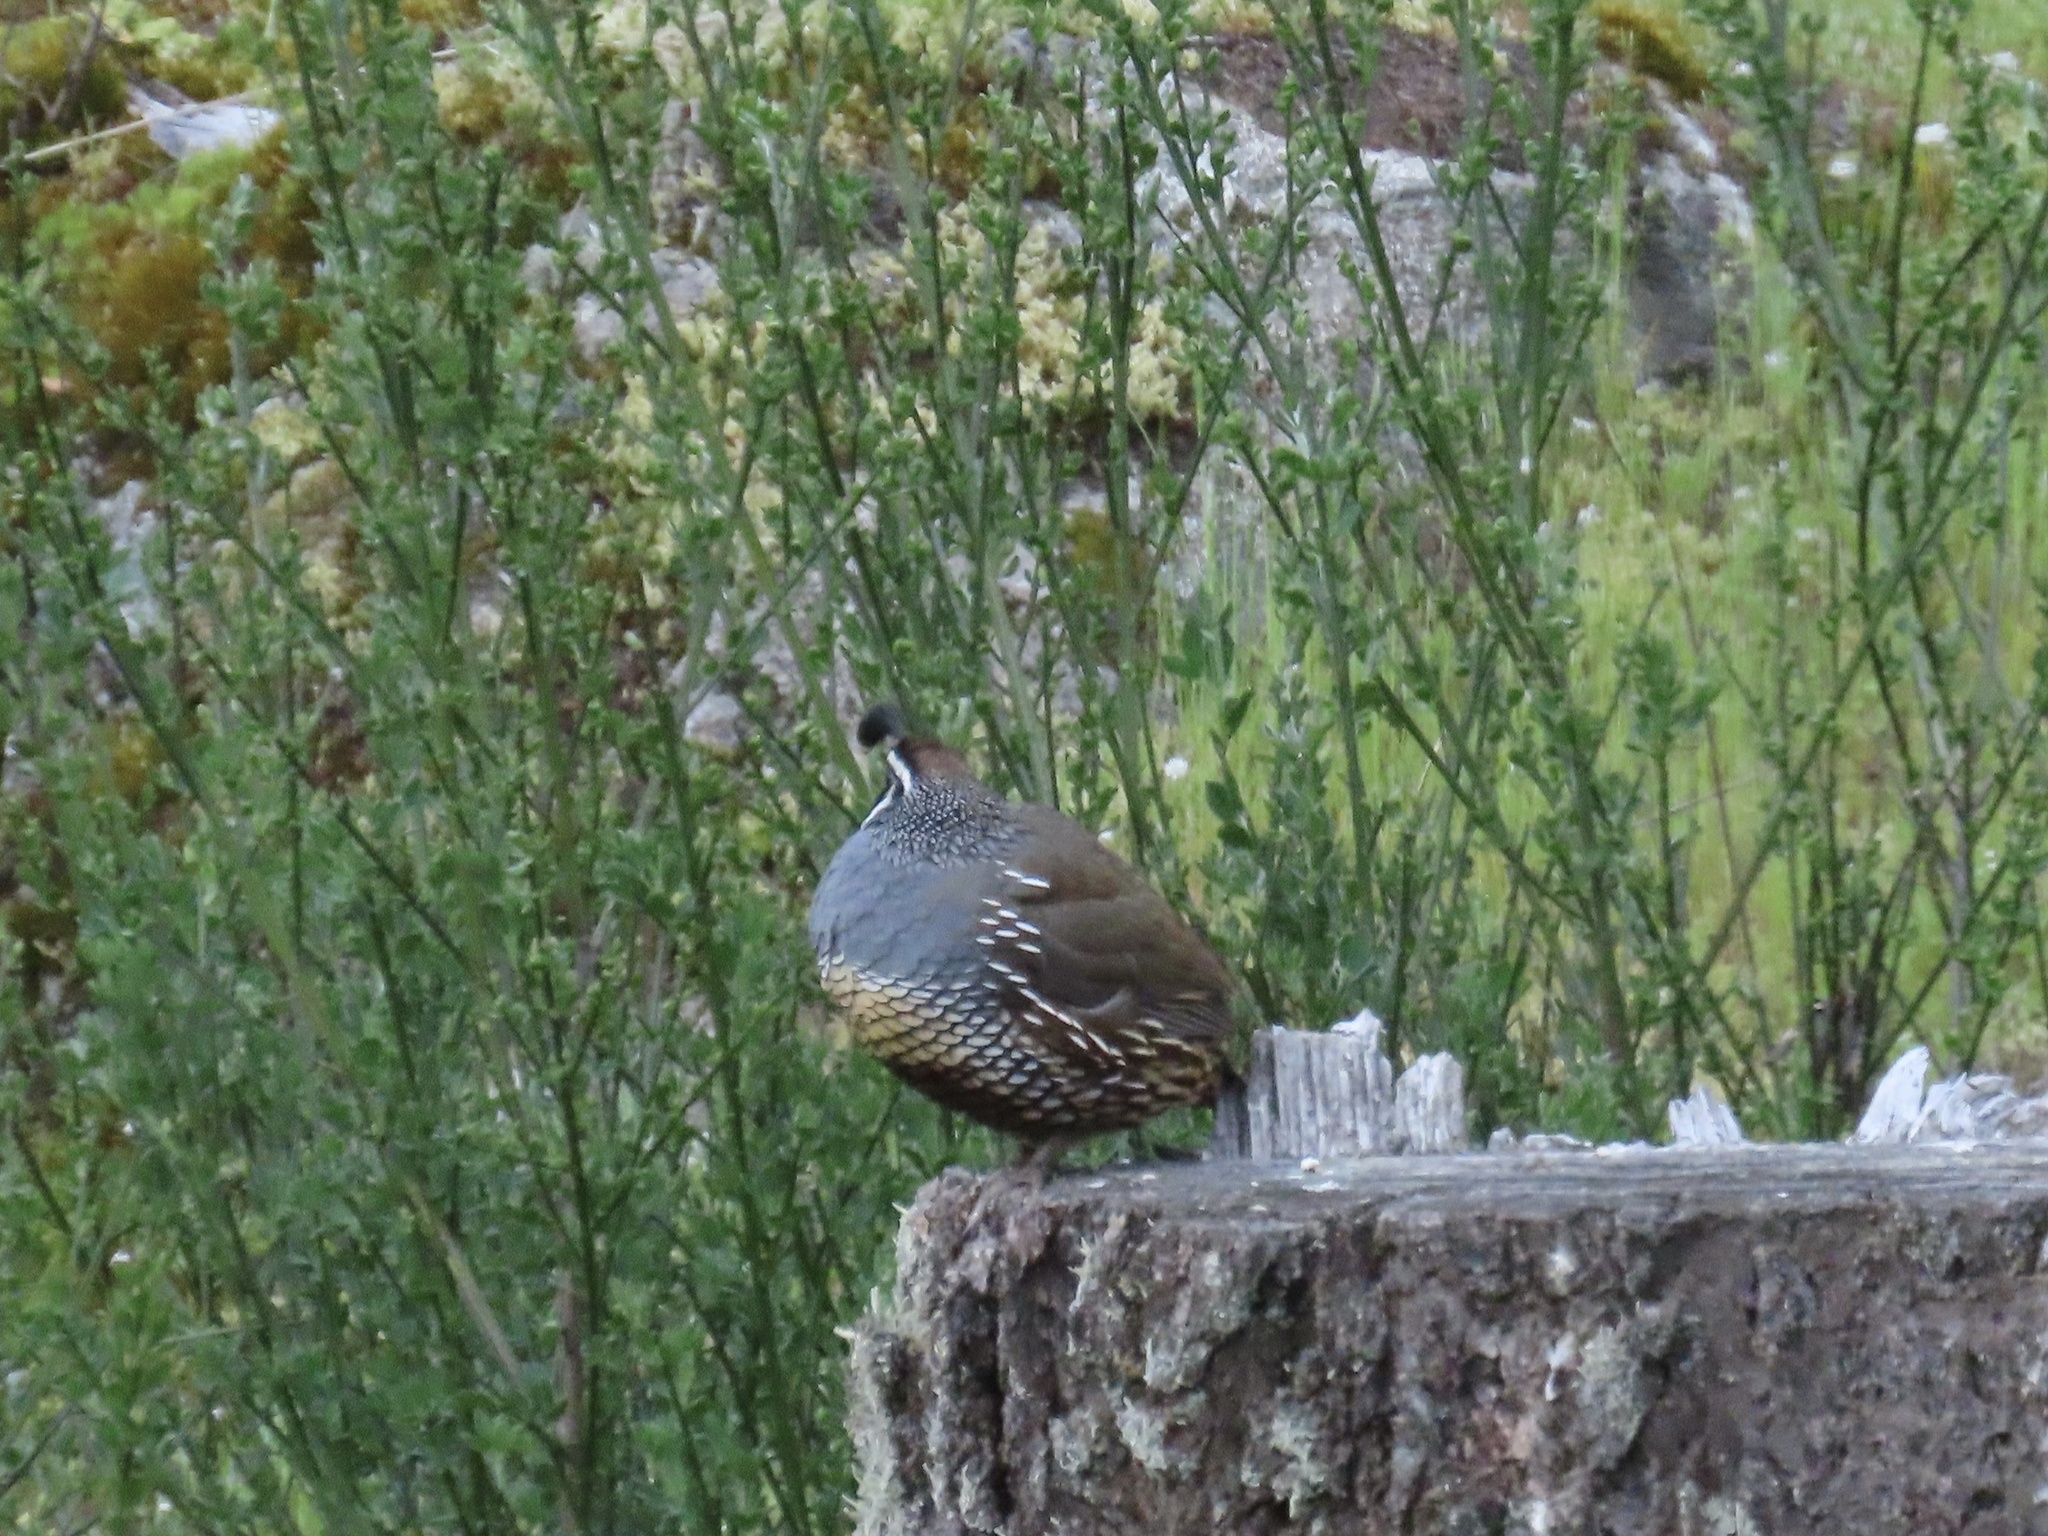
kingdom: Animalia
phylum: Chordata
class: Aves
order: Galliformes
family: Odontophoridae
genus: Callipepla
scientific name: Callipepla californica
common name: California quail
